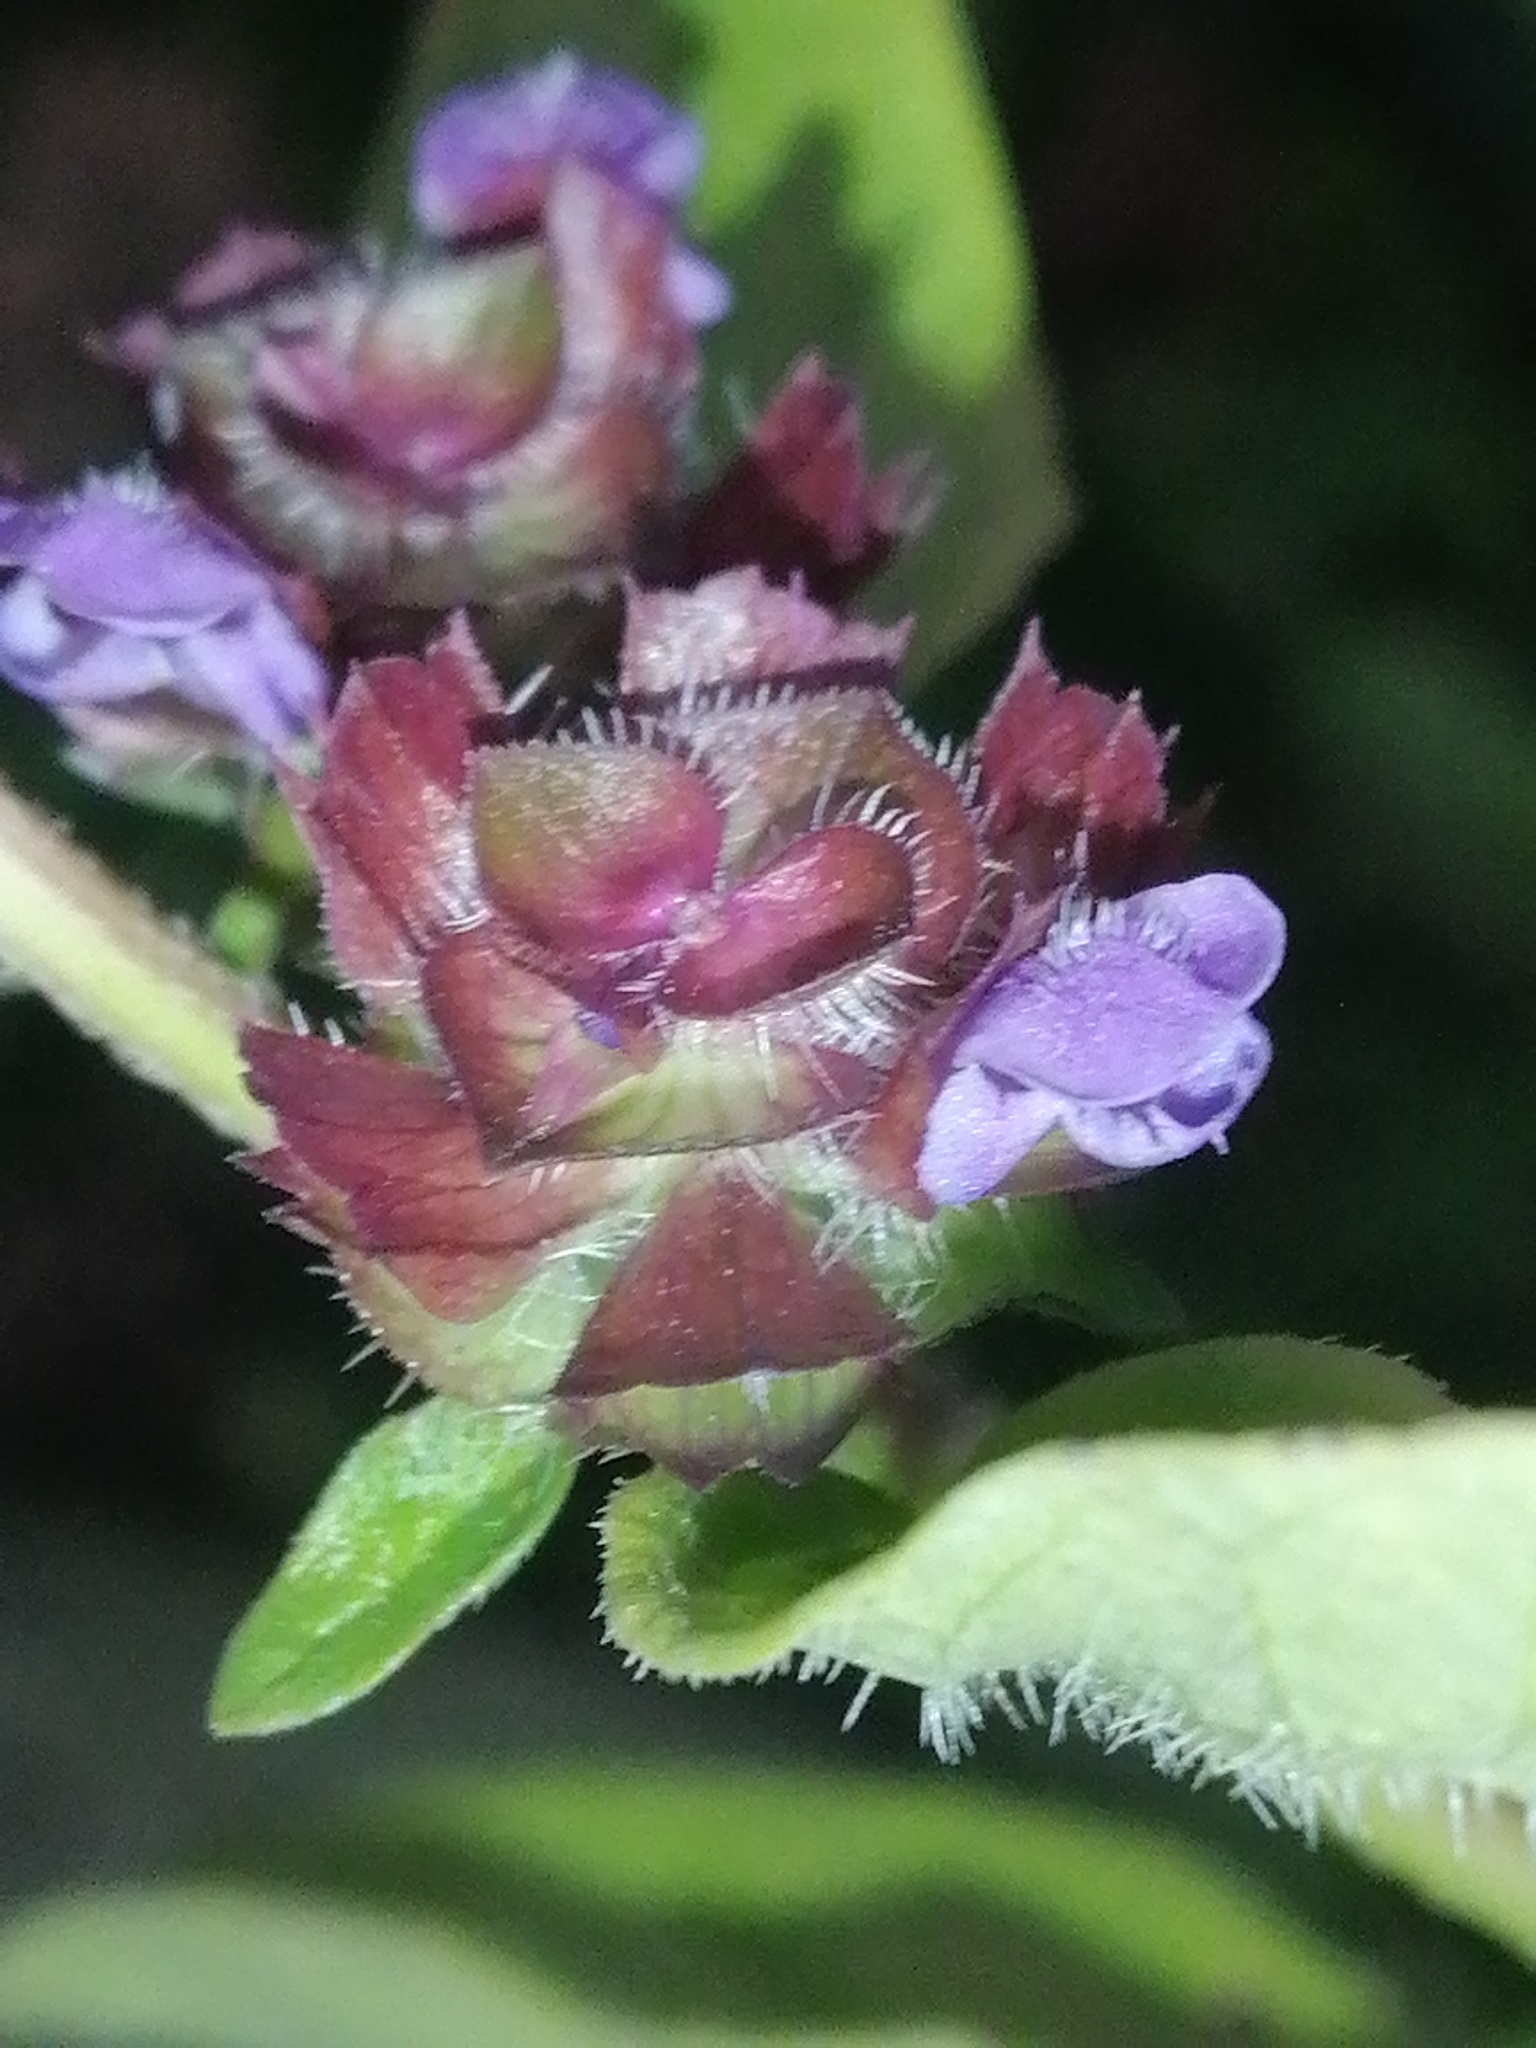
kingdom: Plantae
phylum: Tracheophyta
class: Magnoliopsida
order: Lamiales
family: Lamiaceae
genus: Prunella
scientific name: Prunella vulgaris
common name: Heal-all
